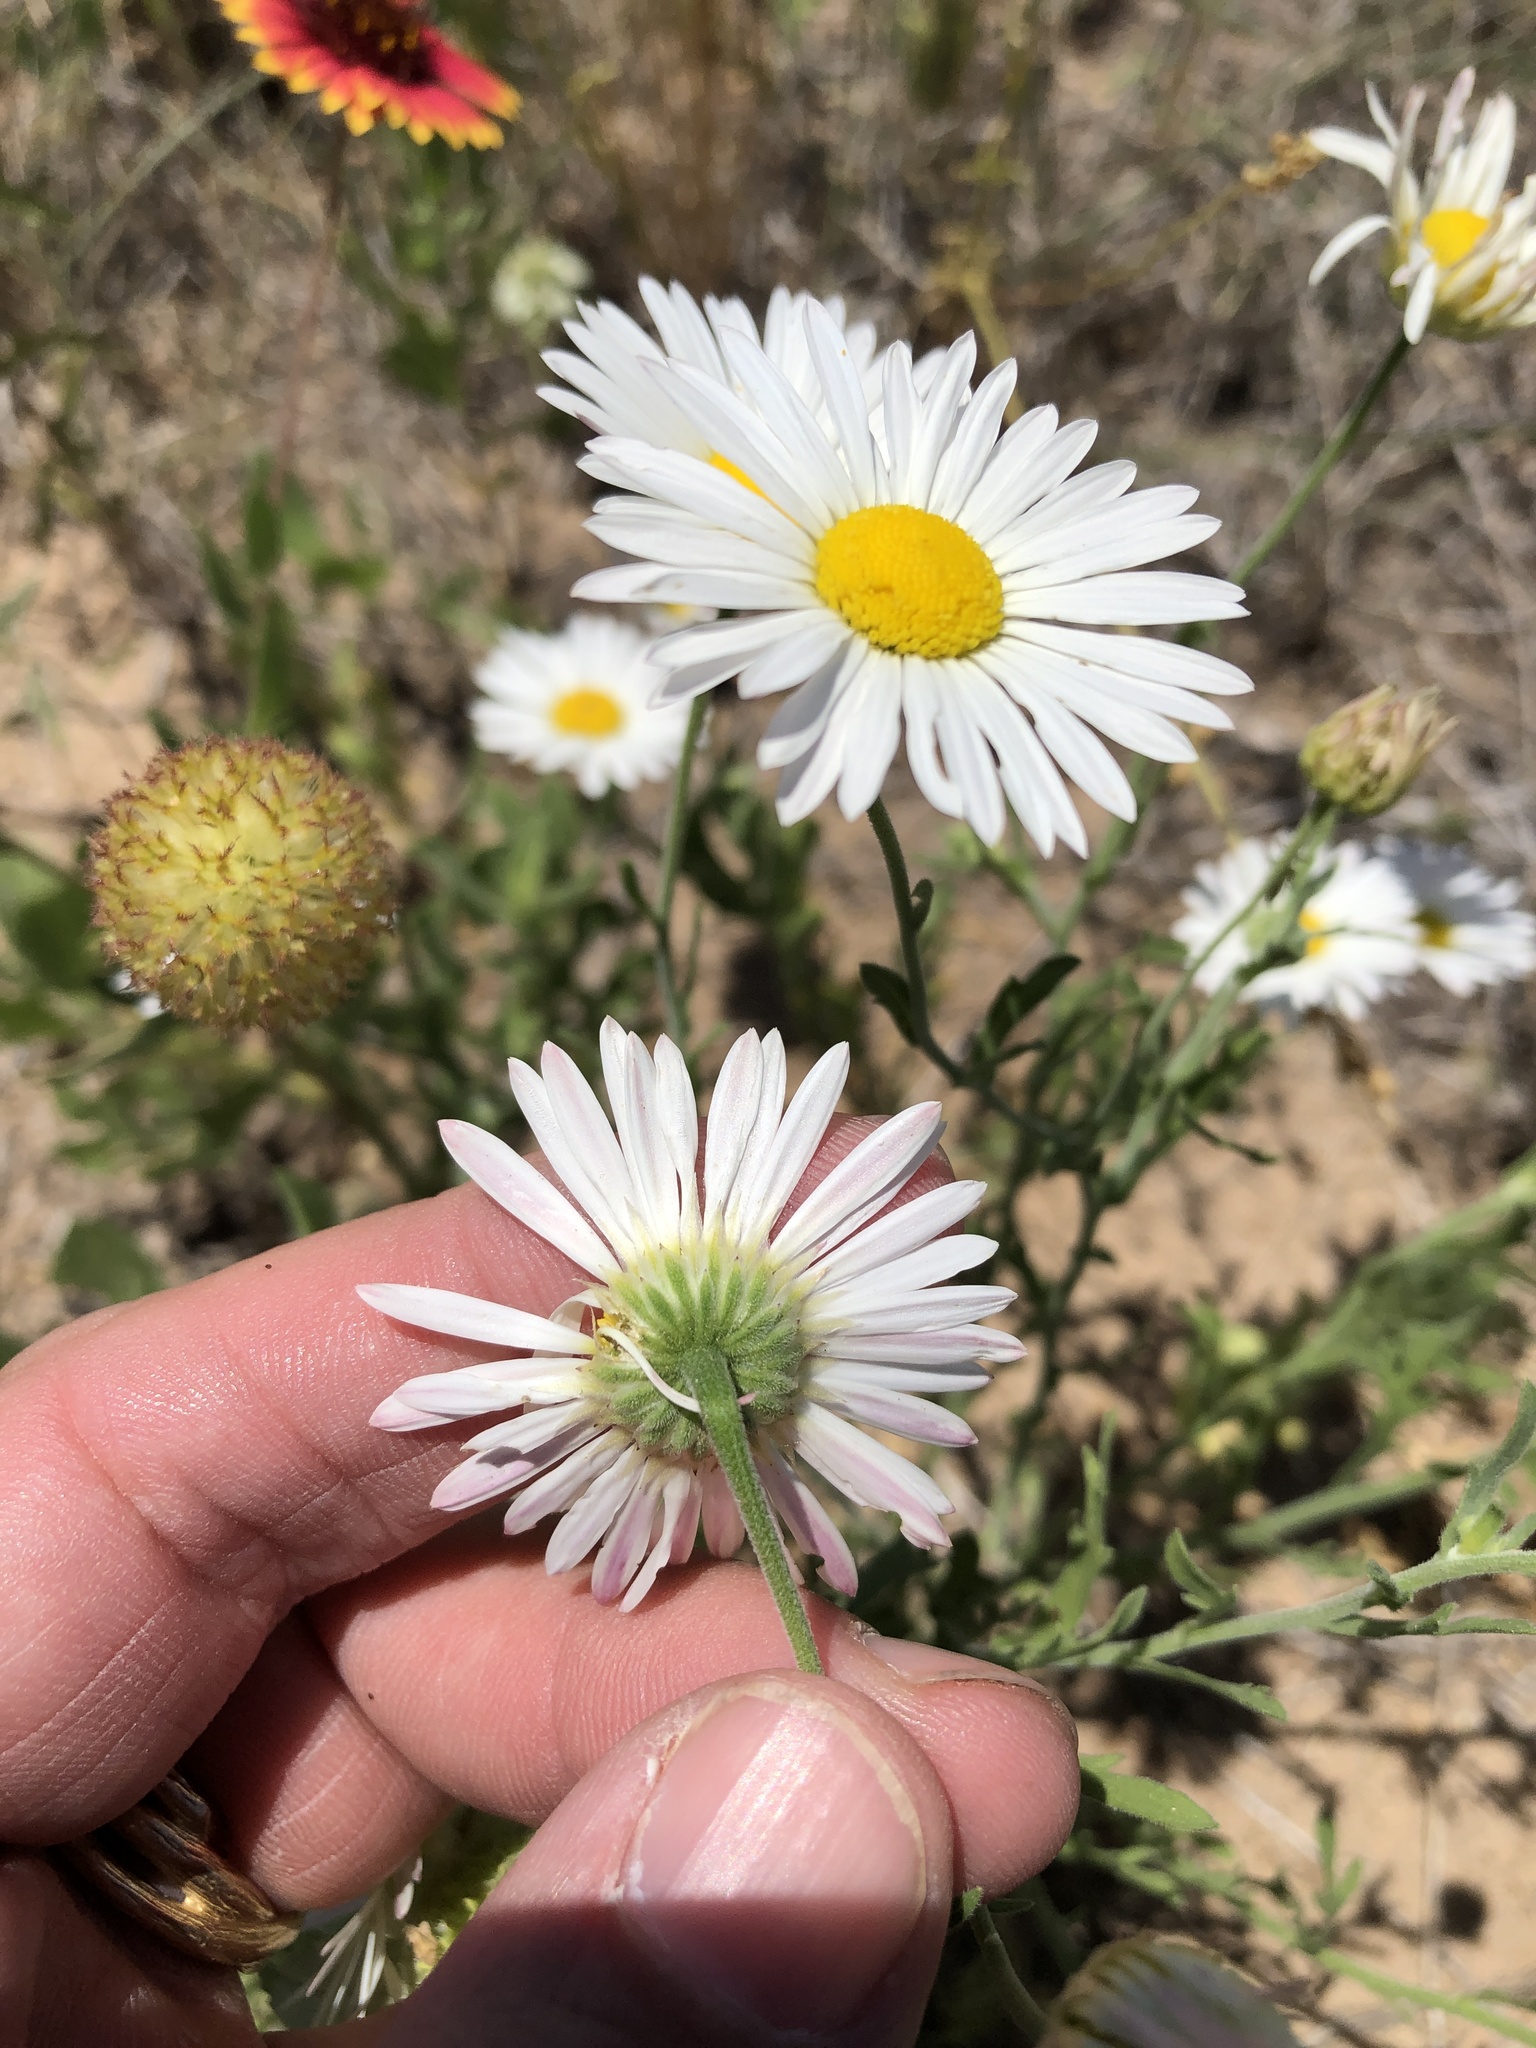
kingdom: Plantae
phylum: Tracheophyta
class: Magnoliopsida
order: Asterales
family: Asteraceae
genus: Aphanostephus
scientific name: Aphanostephus skirrhobasis
